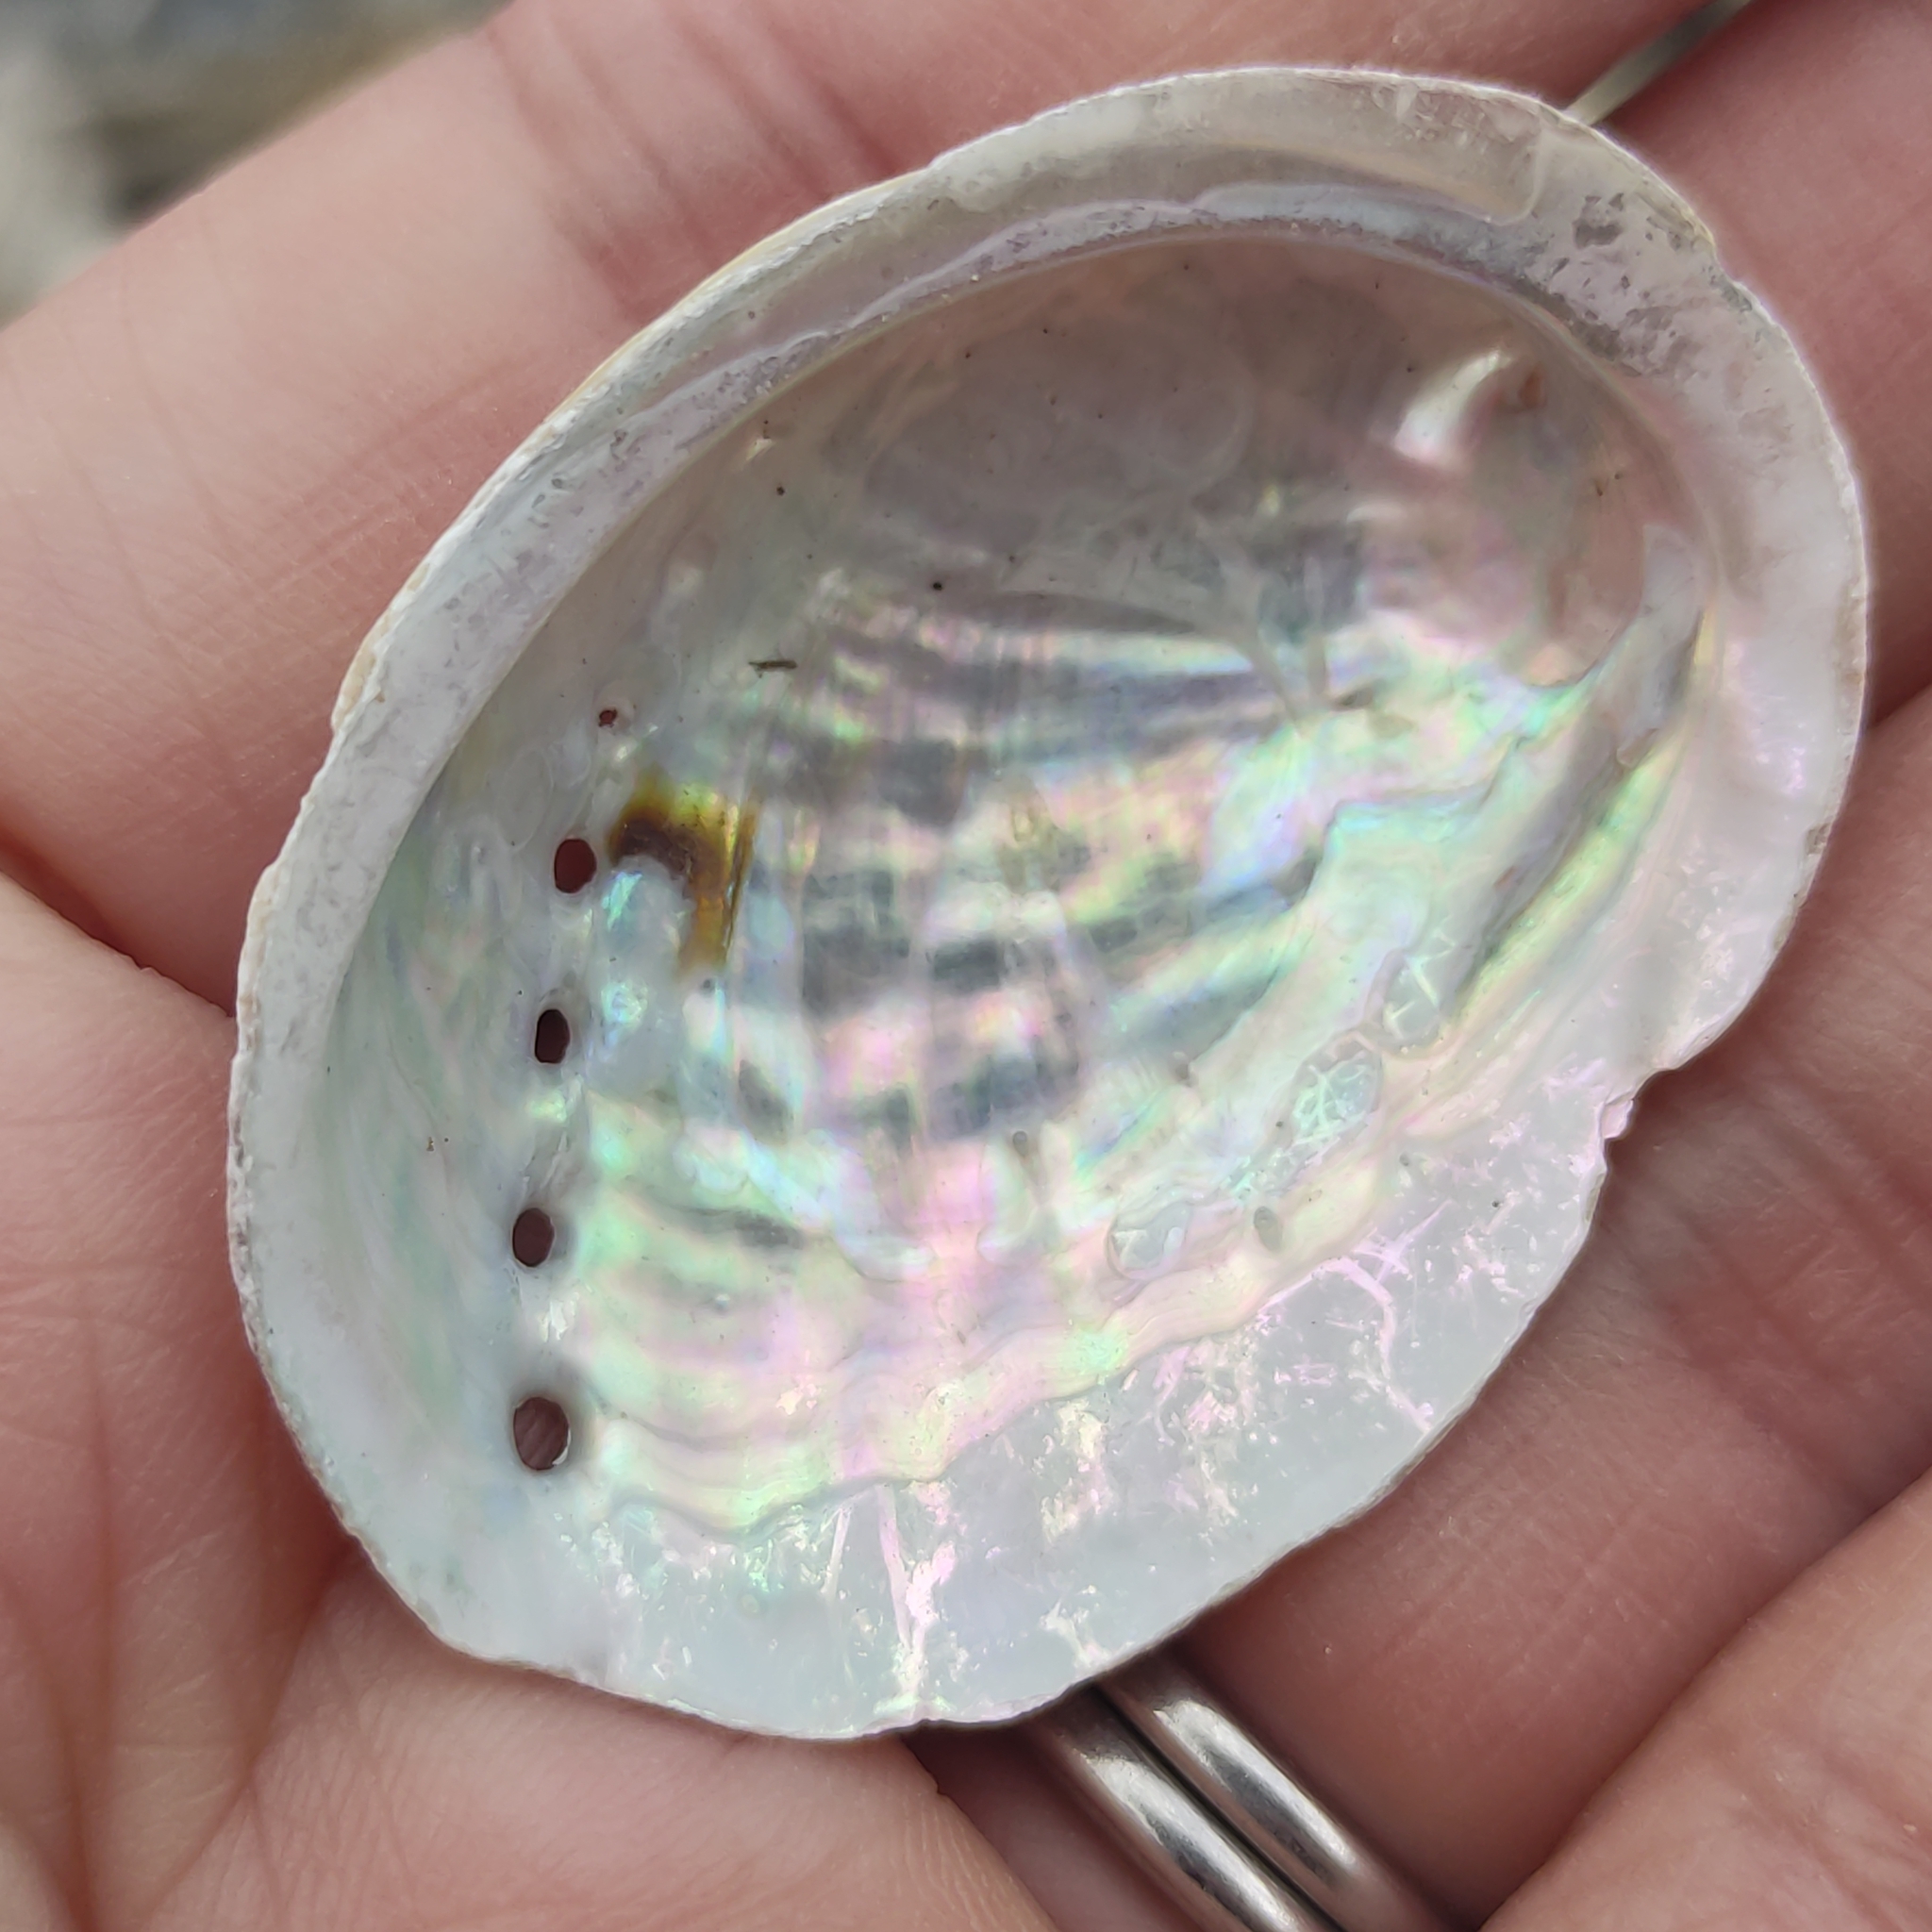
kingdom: Animalia
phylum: Mollusca
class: Gastropoda
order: Lepetellida
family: Haliotidae
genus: Haliotis
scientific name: Haliotis iris
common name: Abalone
